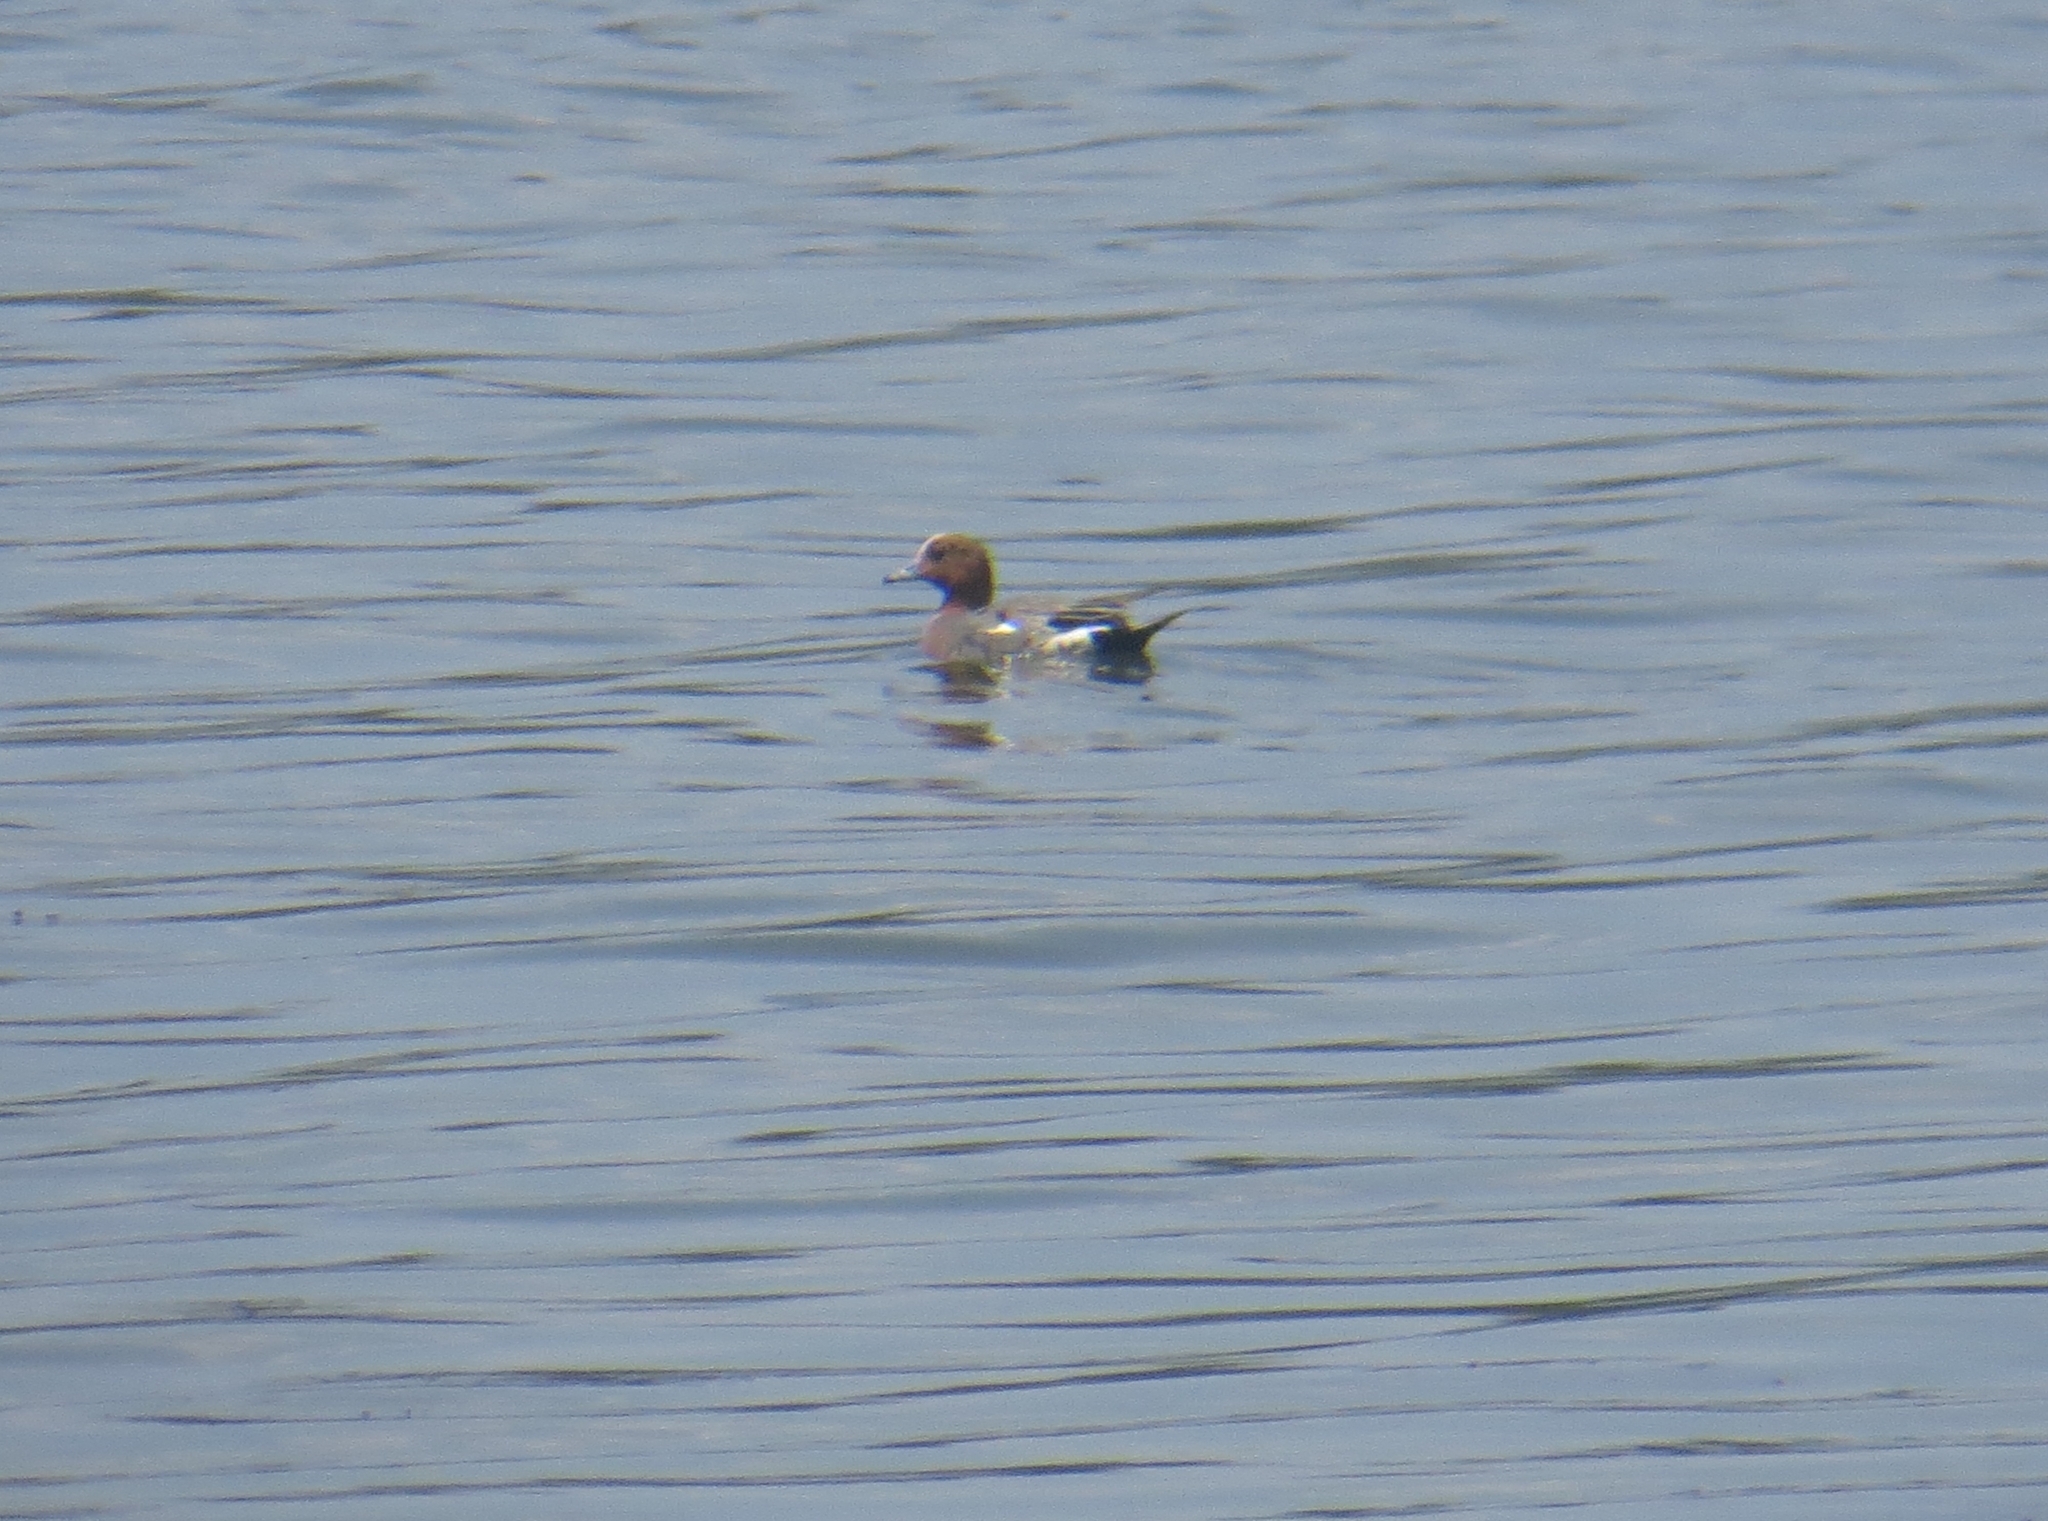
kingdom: Animalia
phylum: Chordata
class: Aves
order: Anseriformes
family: Anatidae
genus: Mareca
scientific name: Mareca penelope
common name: Eurasian wigeon
